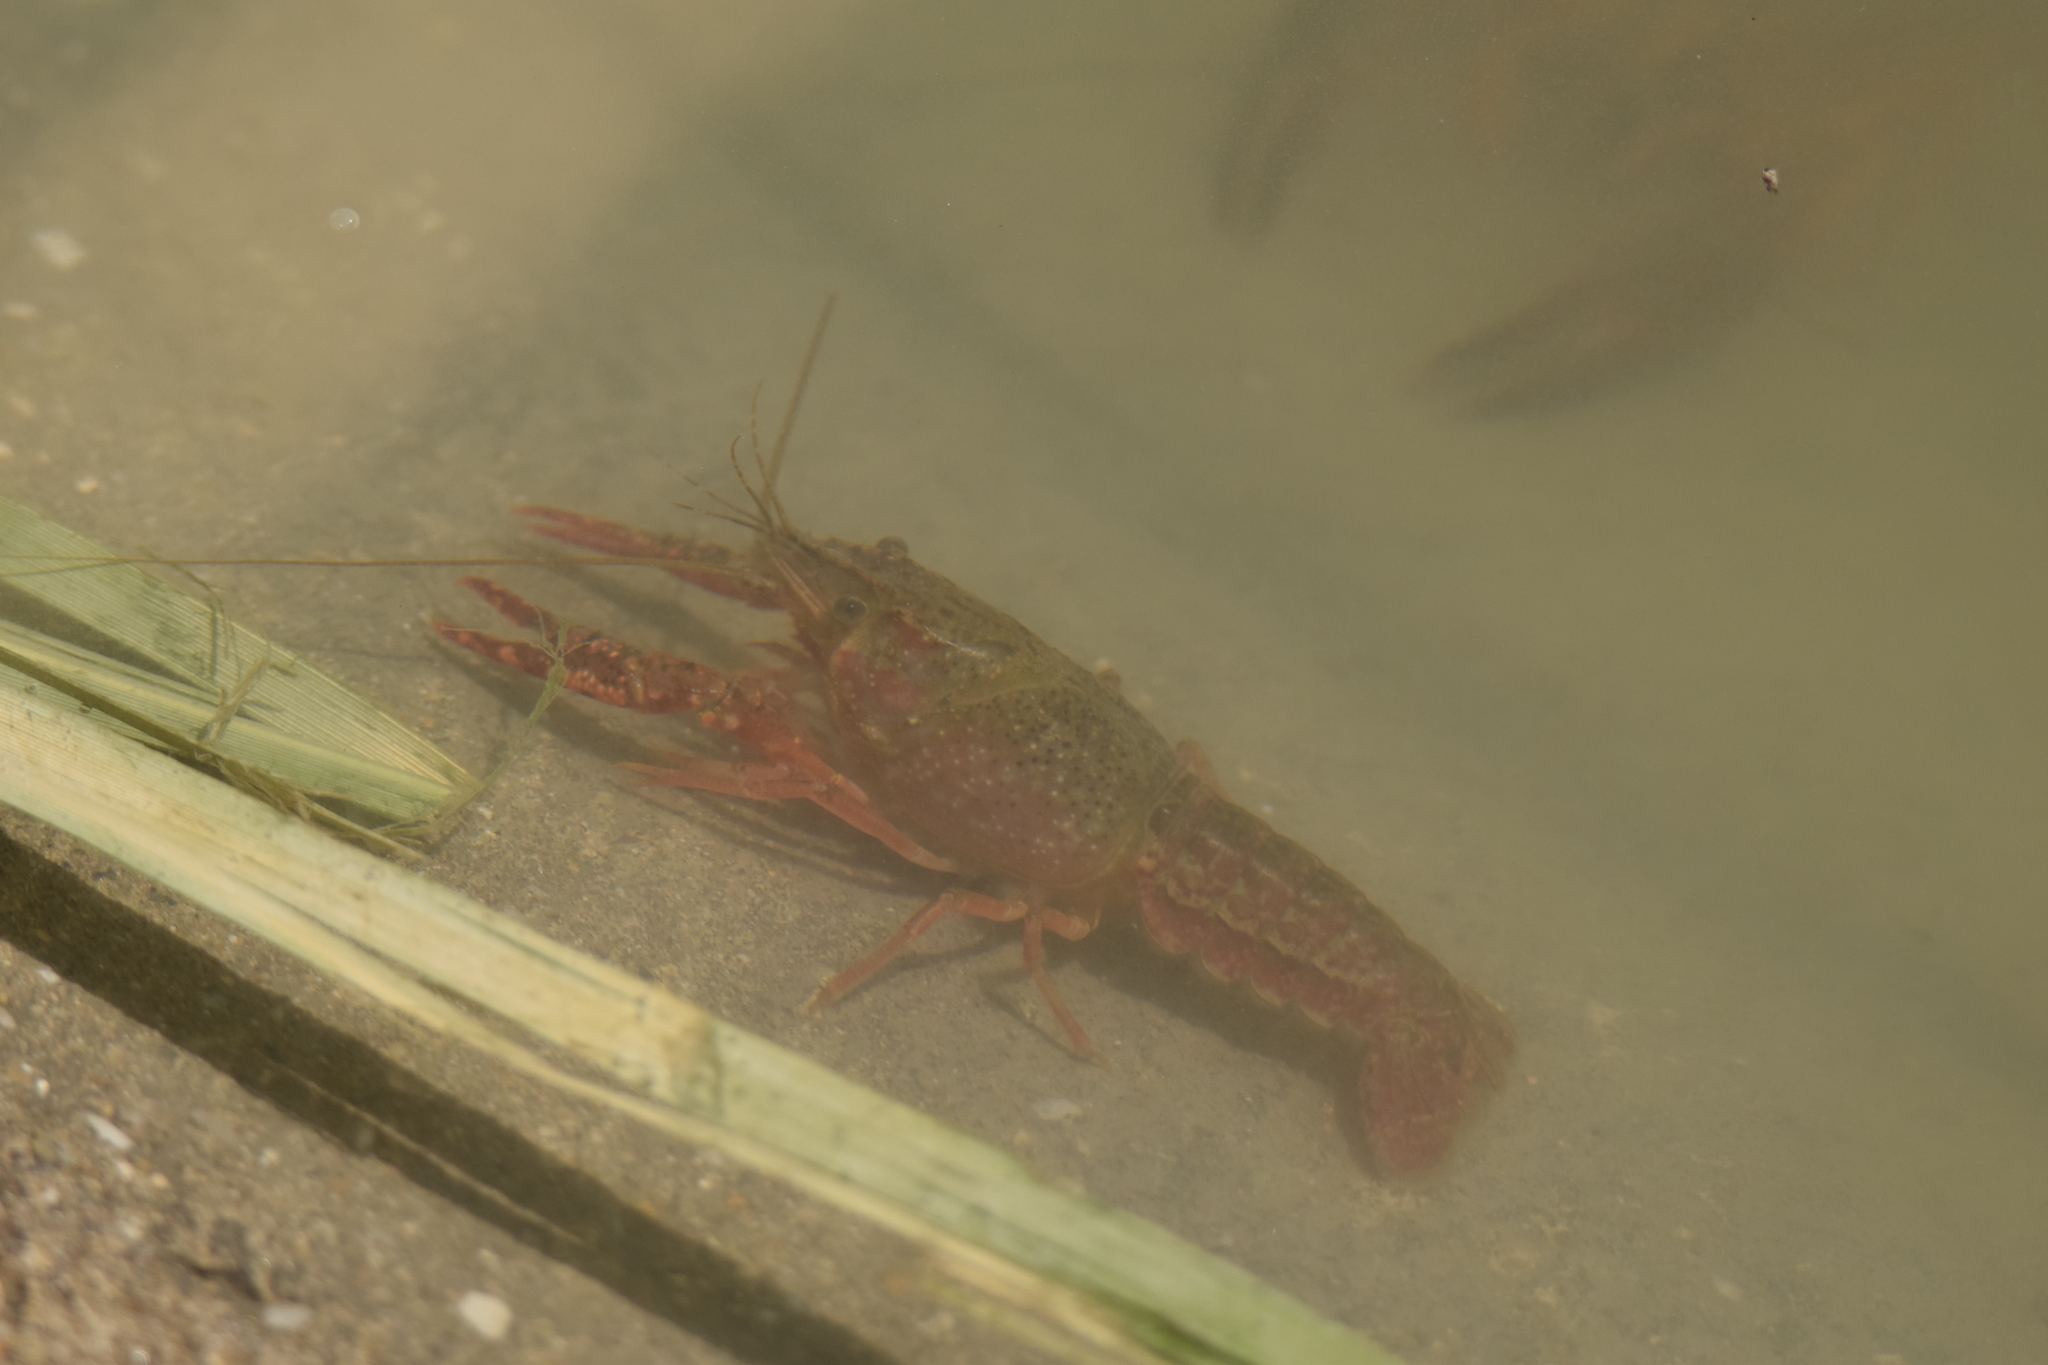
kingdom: Animalia
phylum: Arthropoda
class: Malacostraca
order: Decapoda
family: Cambaridae
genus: Procambarus
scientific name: Procambarus clarkii
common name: Red swamp crayfish
